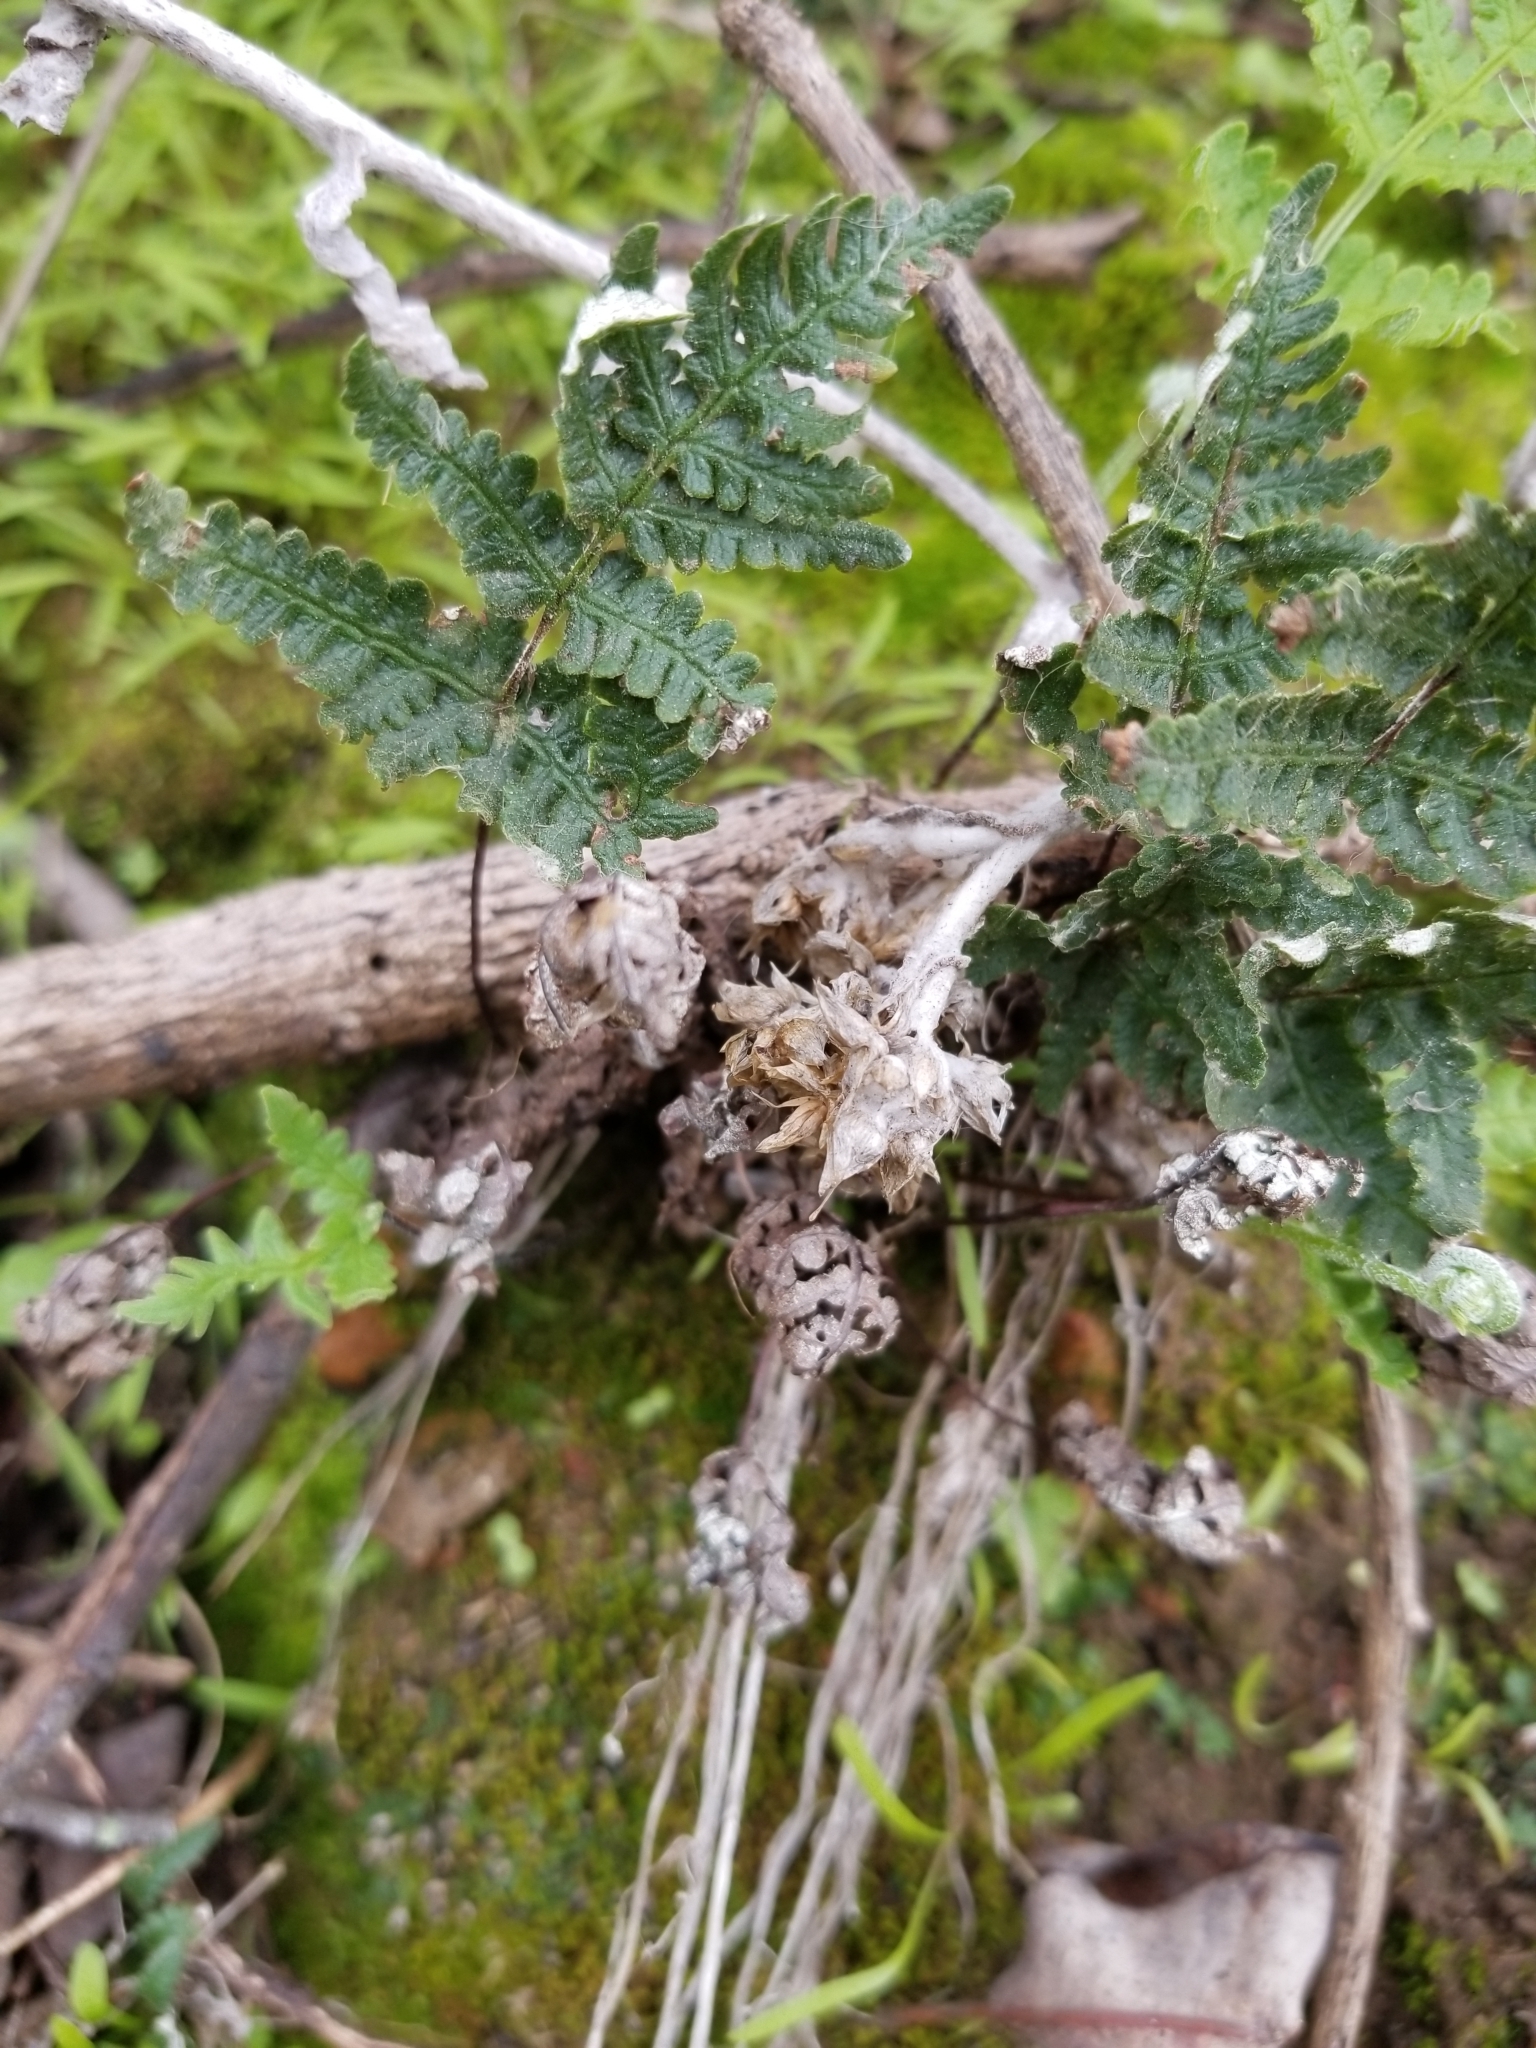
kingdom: Plantae
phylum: Tracheophyta
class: Polypodiopsida
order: Polypodiales
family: Pteridaceae
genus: Pentagramma
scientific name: Pentagramma glanduloviscida
